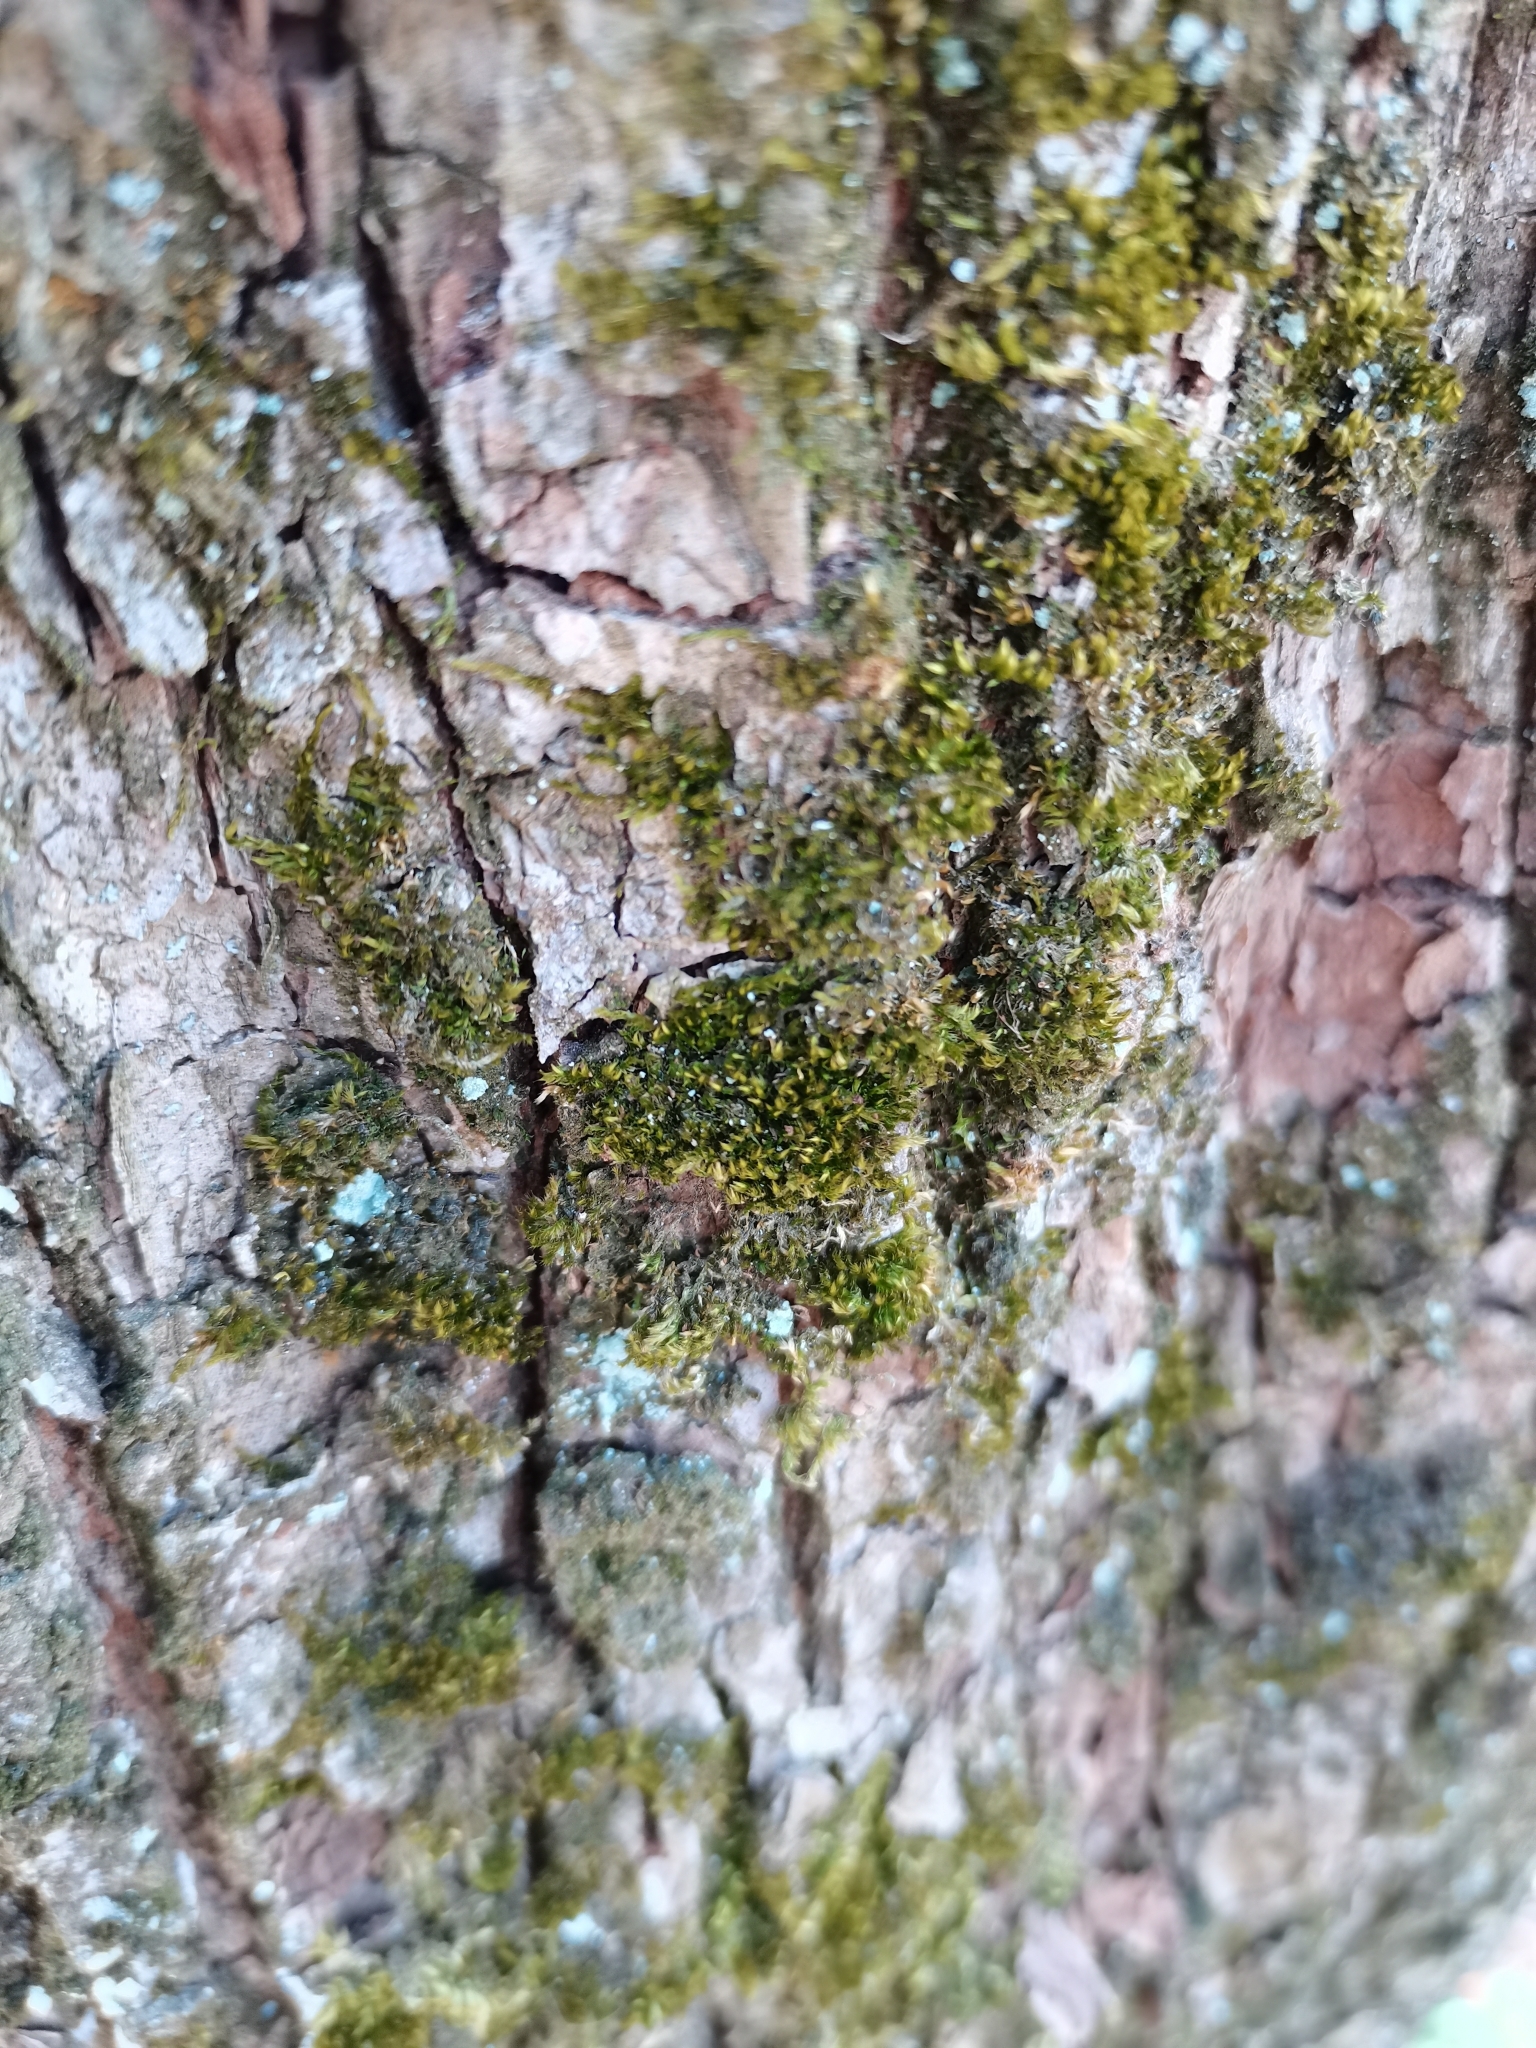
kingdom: Plantae
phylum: Bryophyta
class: Bryopsida
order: Hypnales
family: Pylaisiaceae
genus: Pylaisia
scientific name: Pylaisia polyantha
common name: Many-flowered leskea
